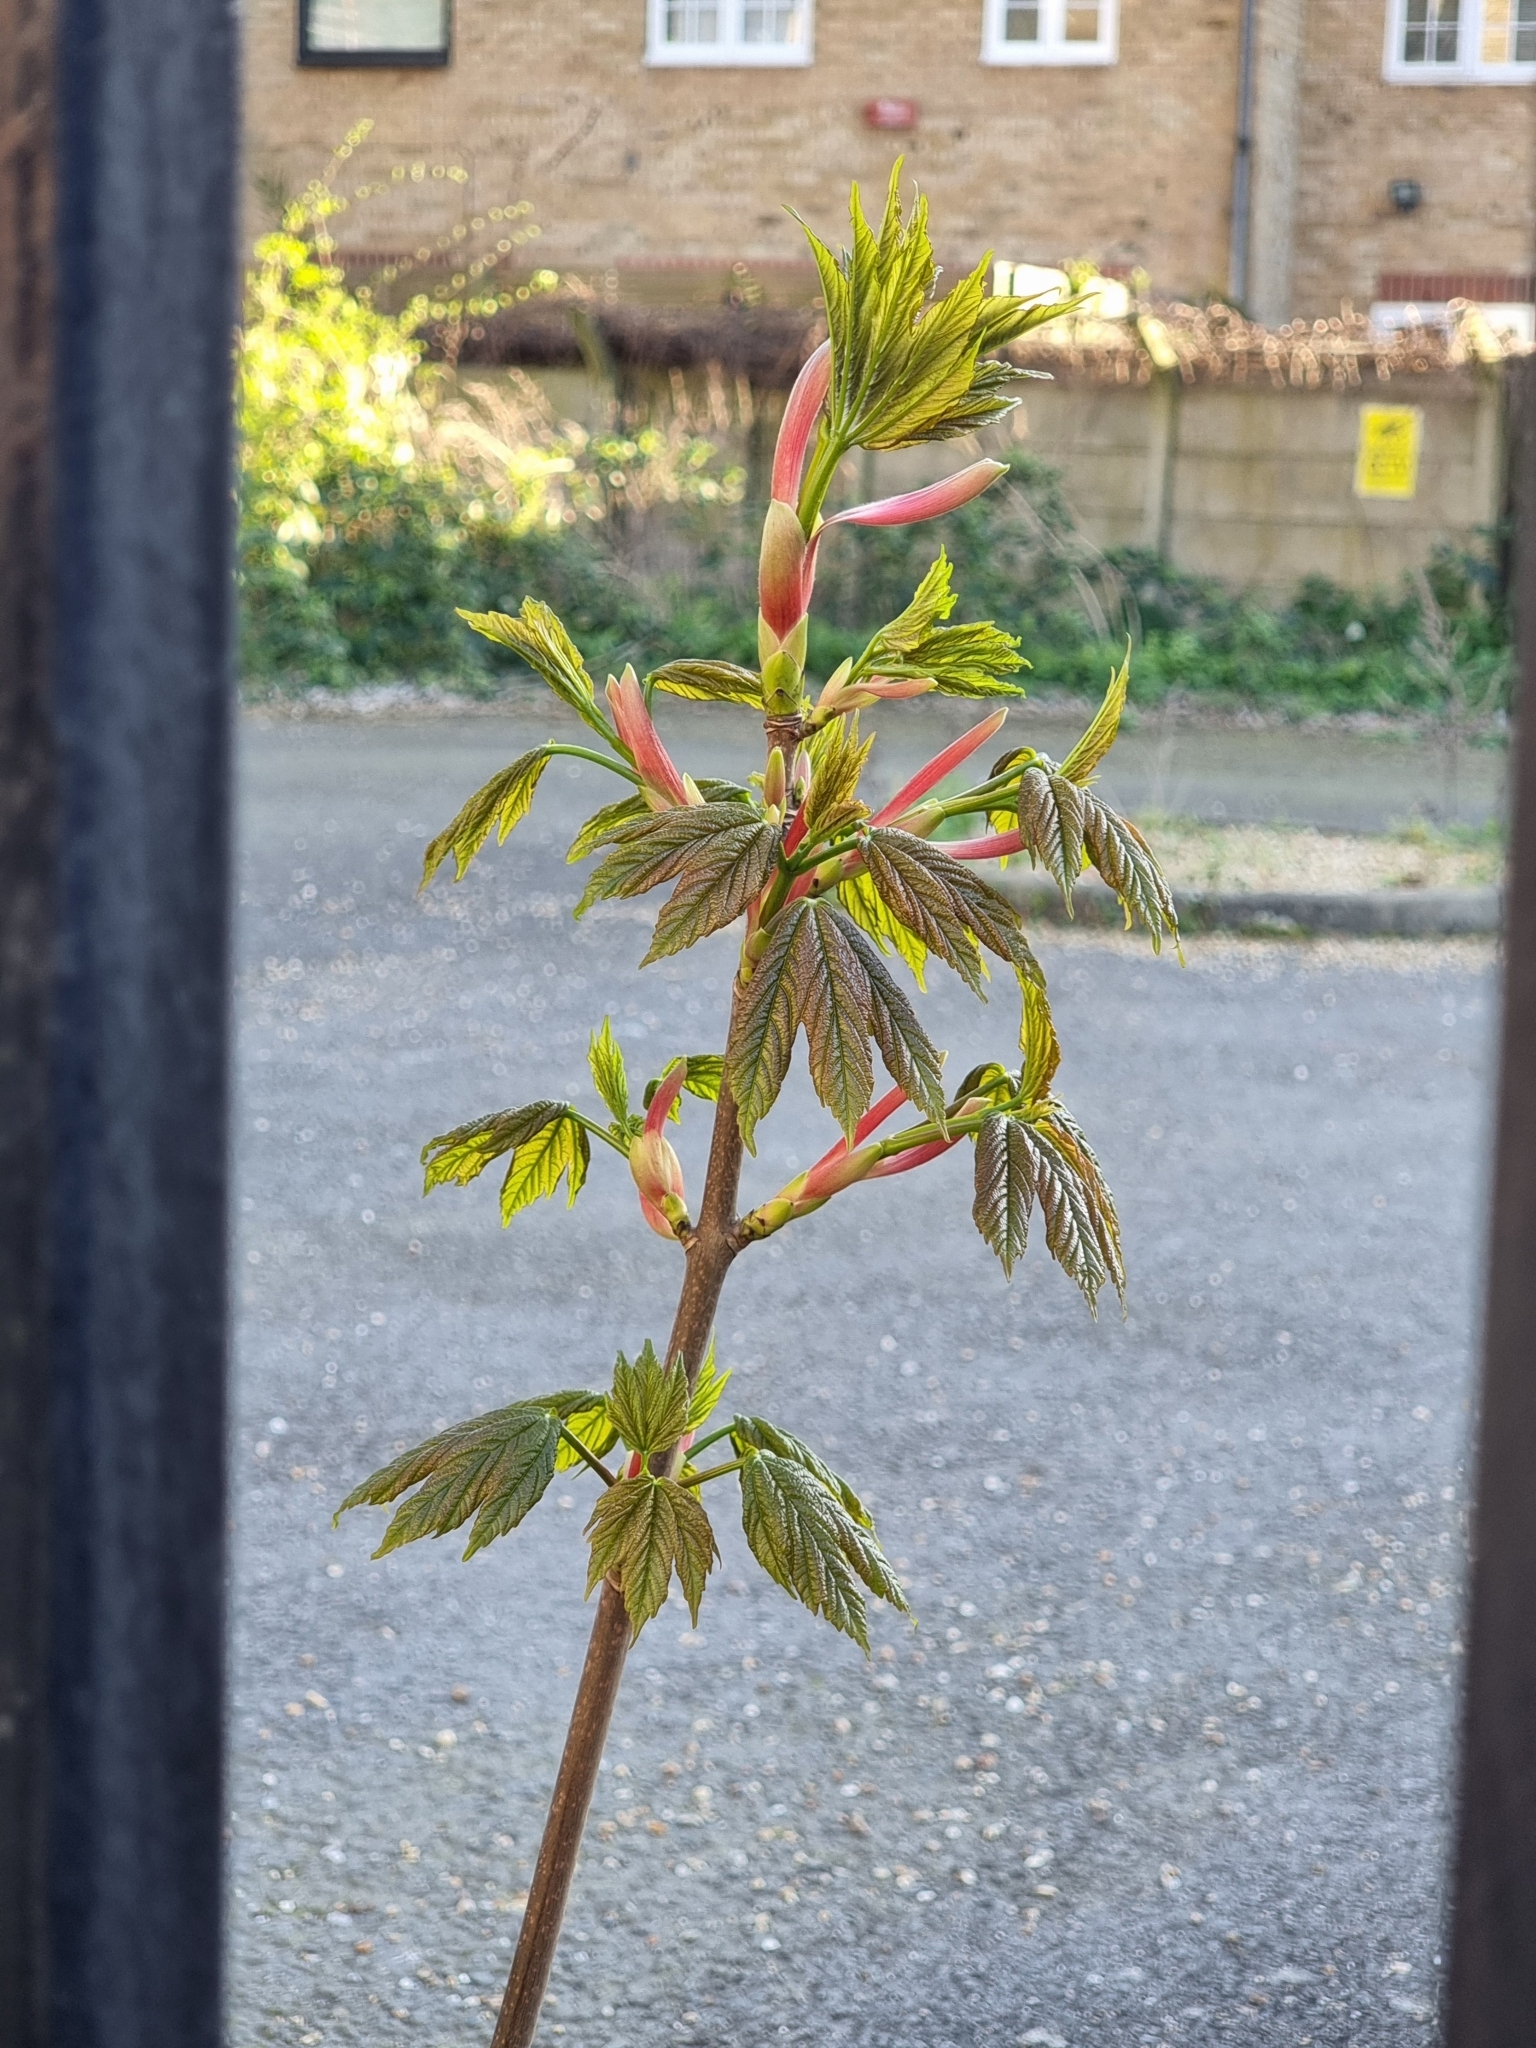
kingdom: Plantae
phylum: Tracheophyta
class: Magnoliopsida
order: Sapindales
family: Sapindaceae
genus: Acer
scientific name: Acer pseudoplatanus
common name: Sycamore
